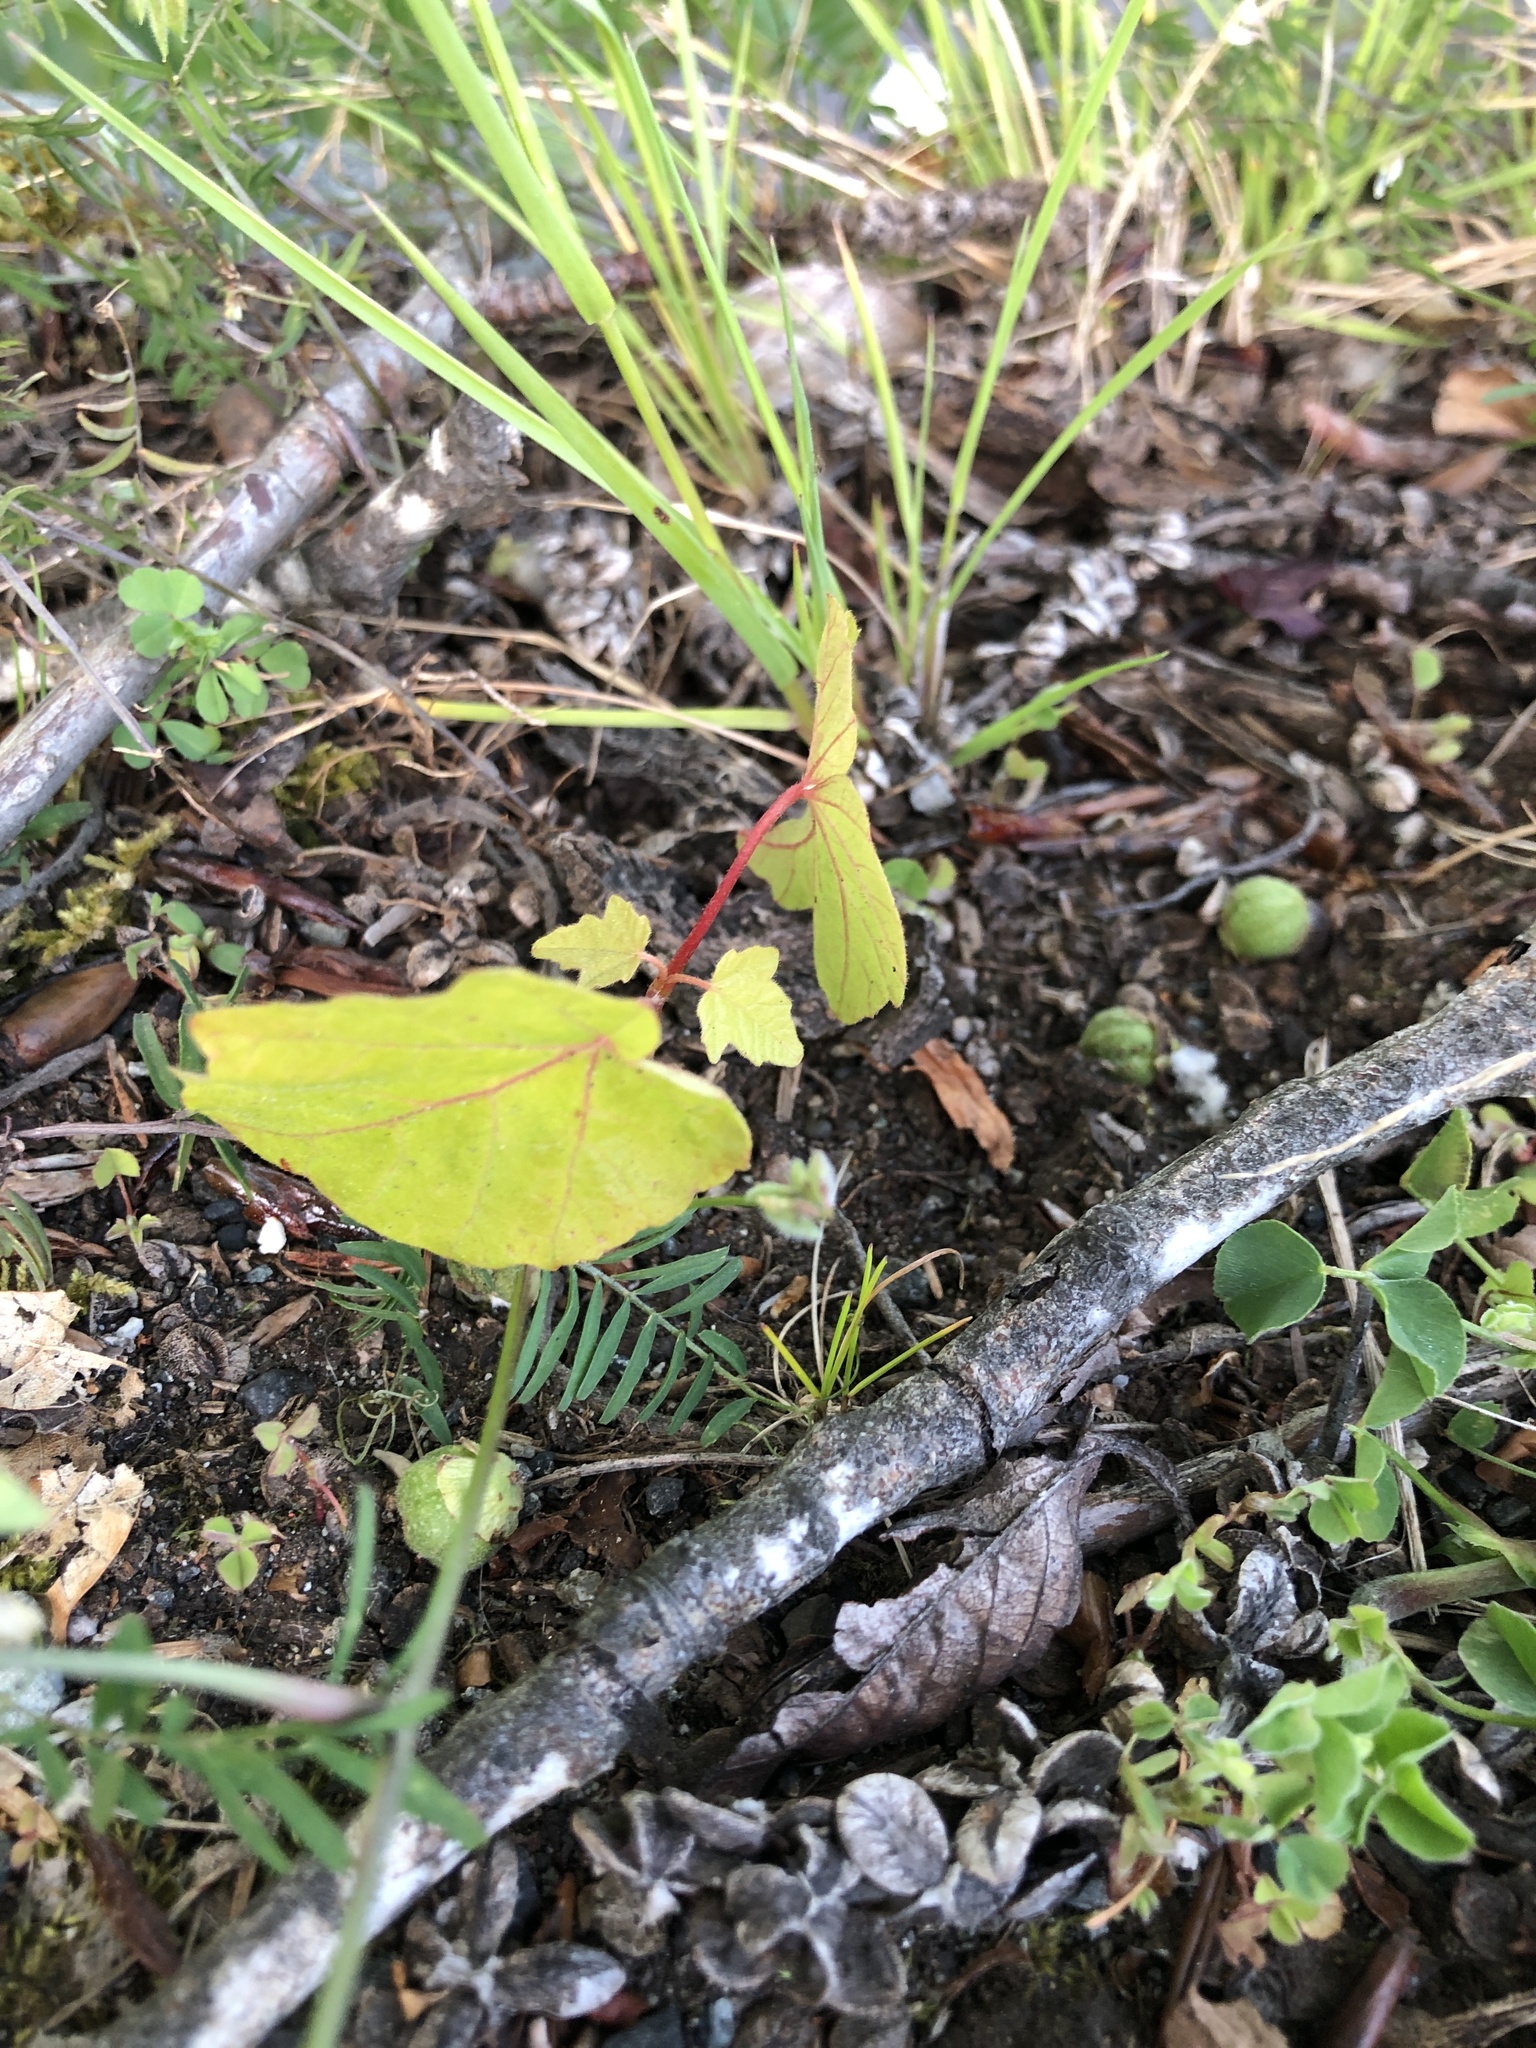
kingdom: Plantae
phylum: Tracheophyta
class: Magnoliopsida
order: Sapindales
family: Sapindaceae
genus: Acer
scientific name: Acer macrophyllum
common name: Oregon maple
